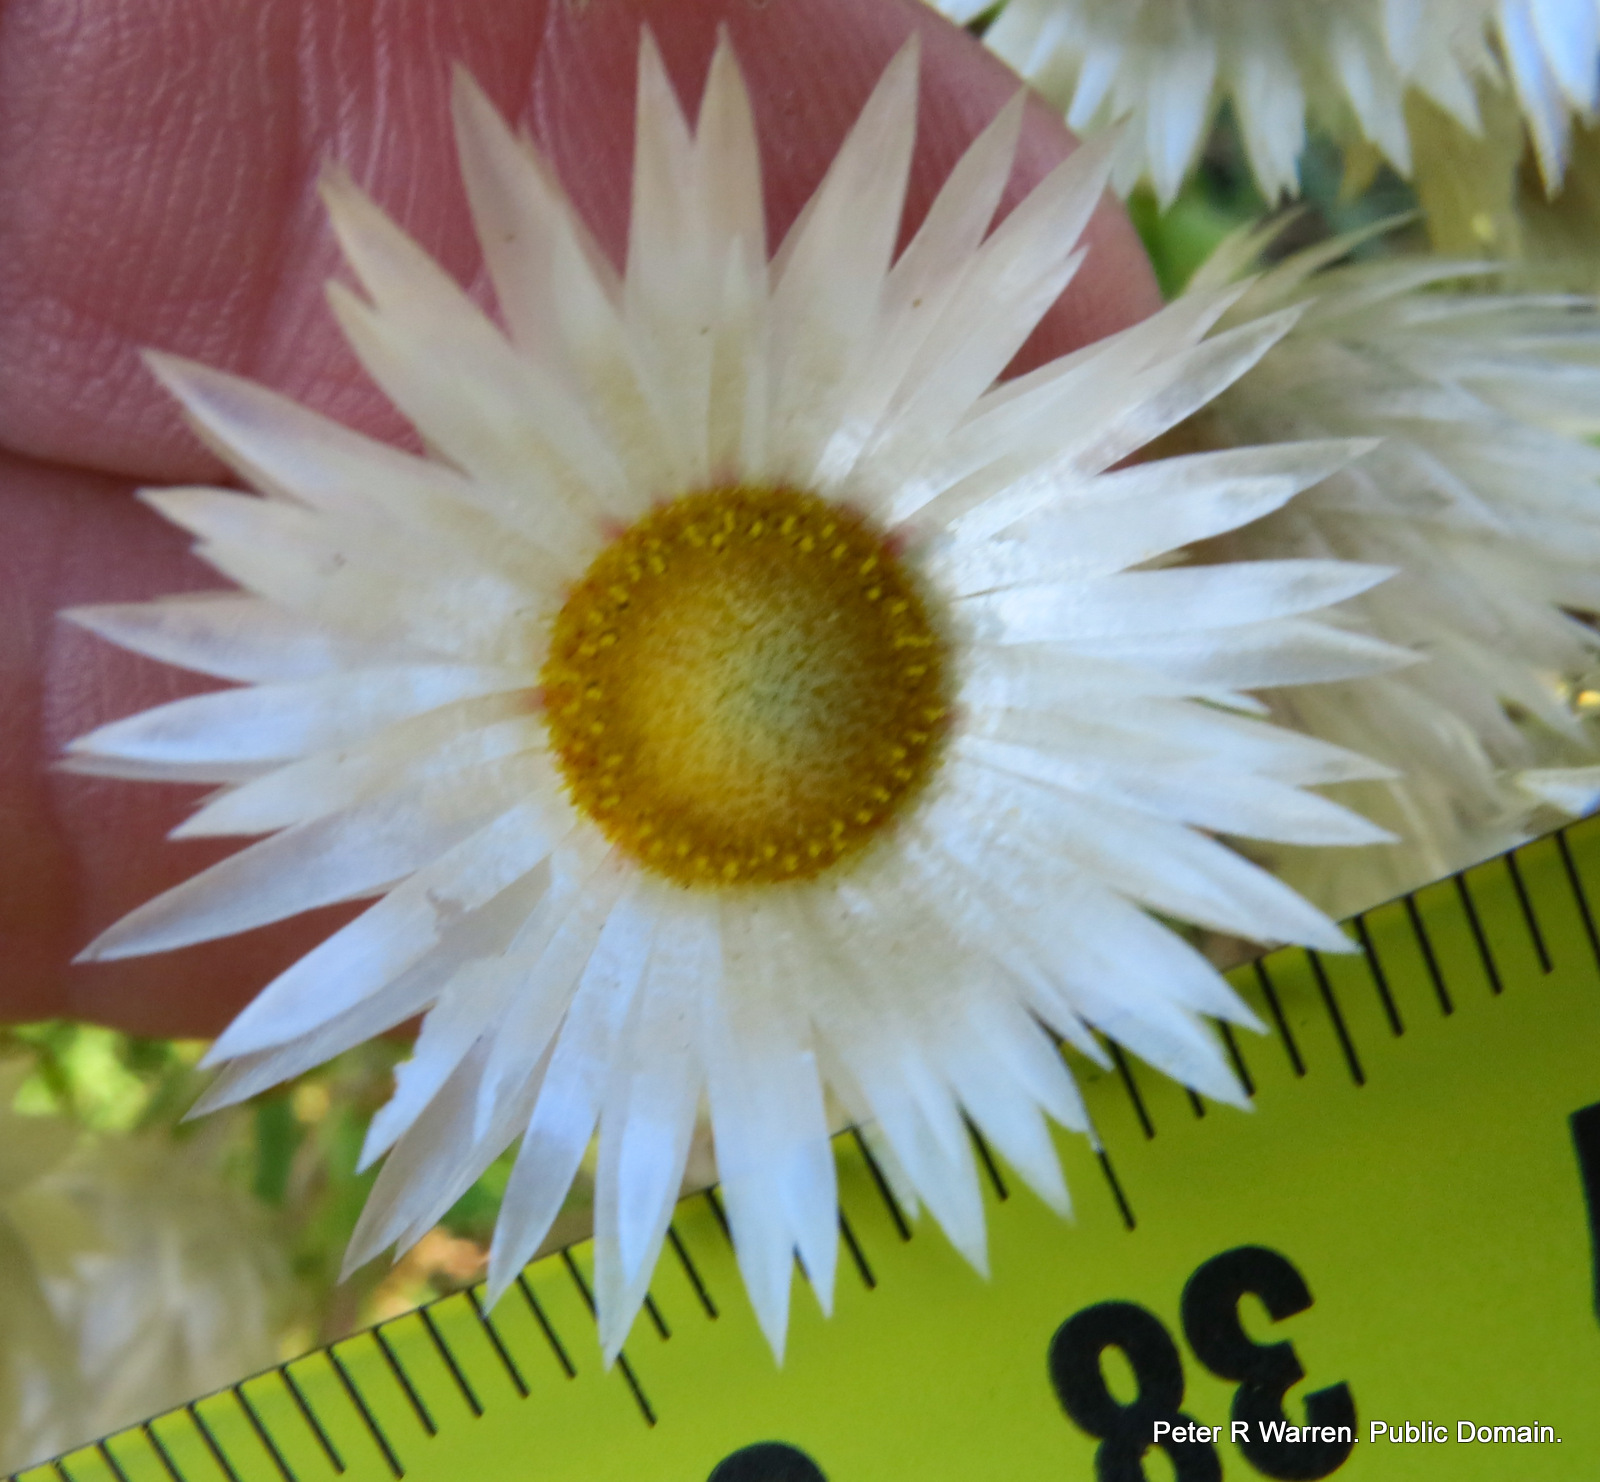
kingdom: Plantae
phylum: Tracheophyta
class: Magnoliopsida
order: Asterales
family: Asteraceae
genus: Helichrysum
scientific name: Helichrysum adenocarpum
